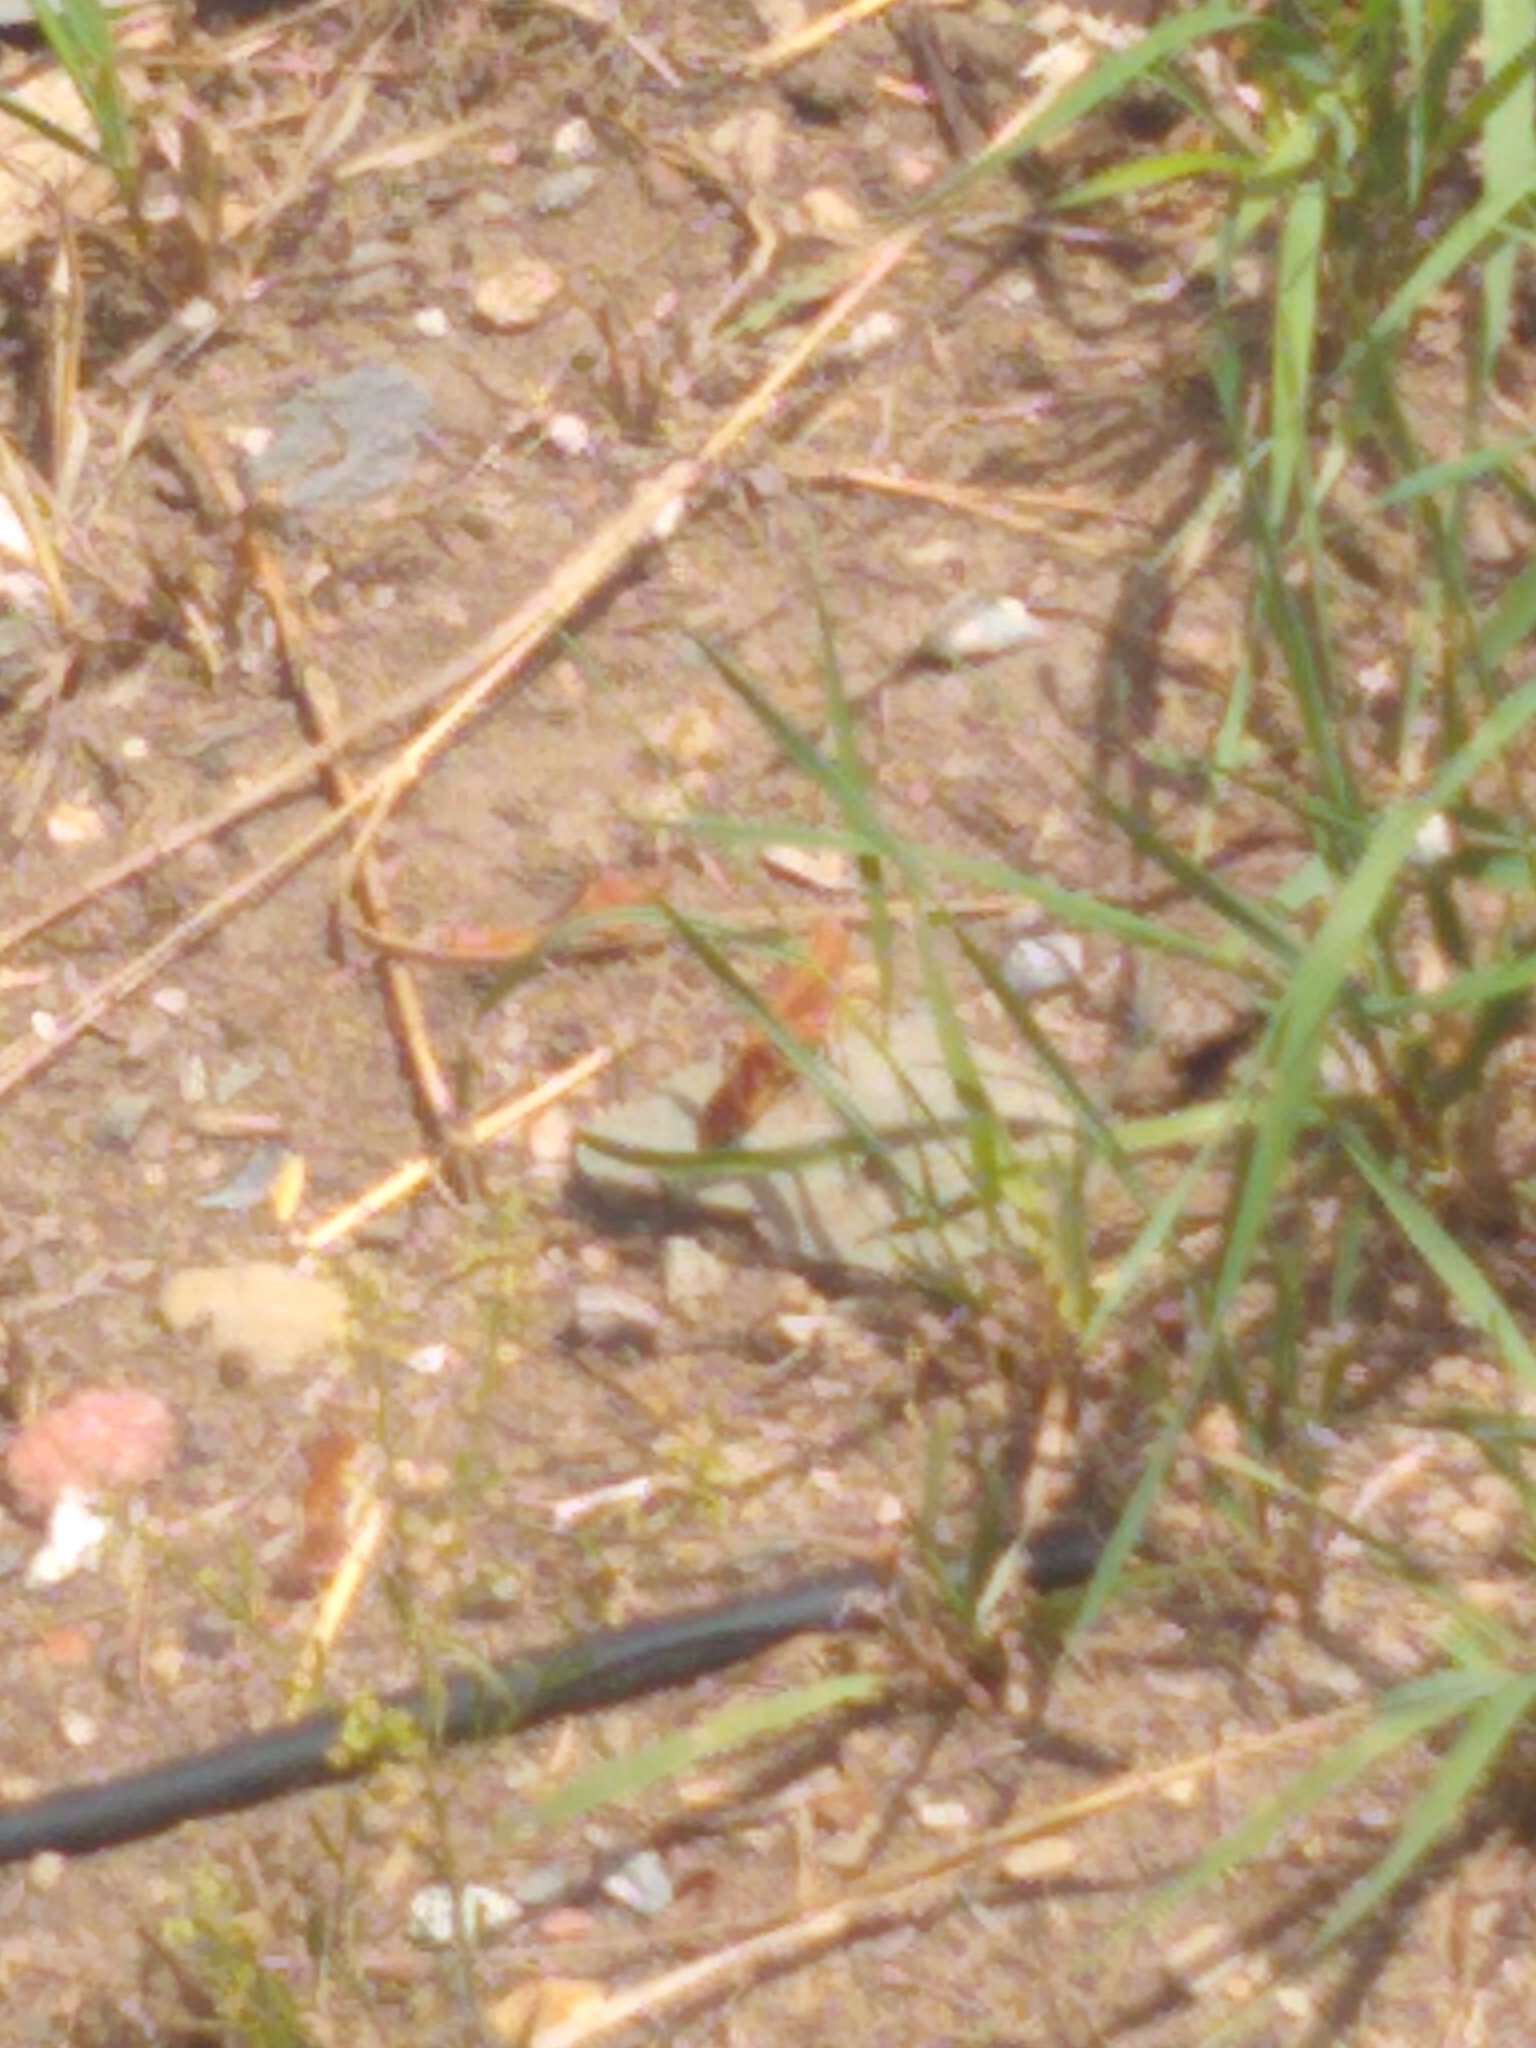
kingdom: Animalia
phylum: Arthropoda
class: Insecta
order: Orthoptera
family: Acrididae
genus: Dissosteira
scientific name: Dissosteira carolina
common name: Carolina grasshopper
